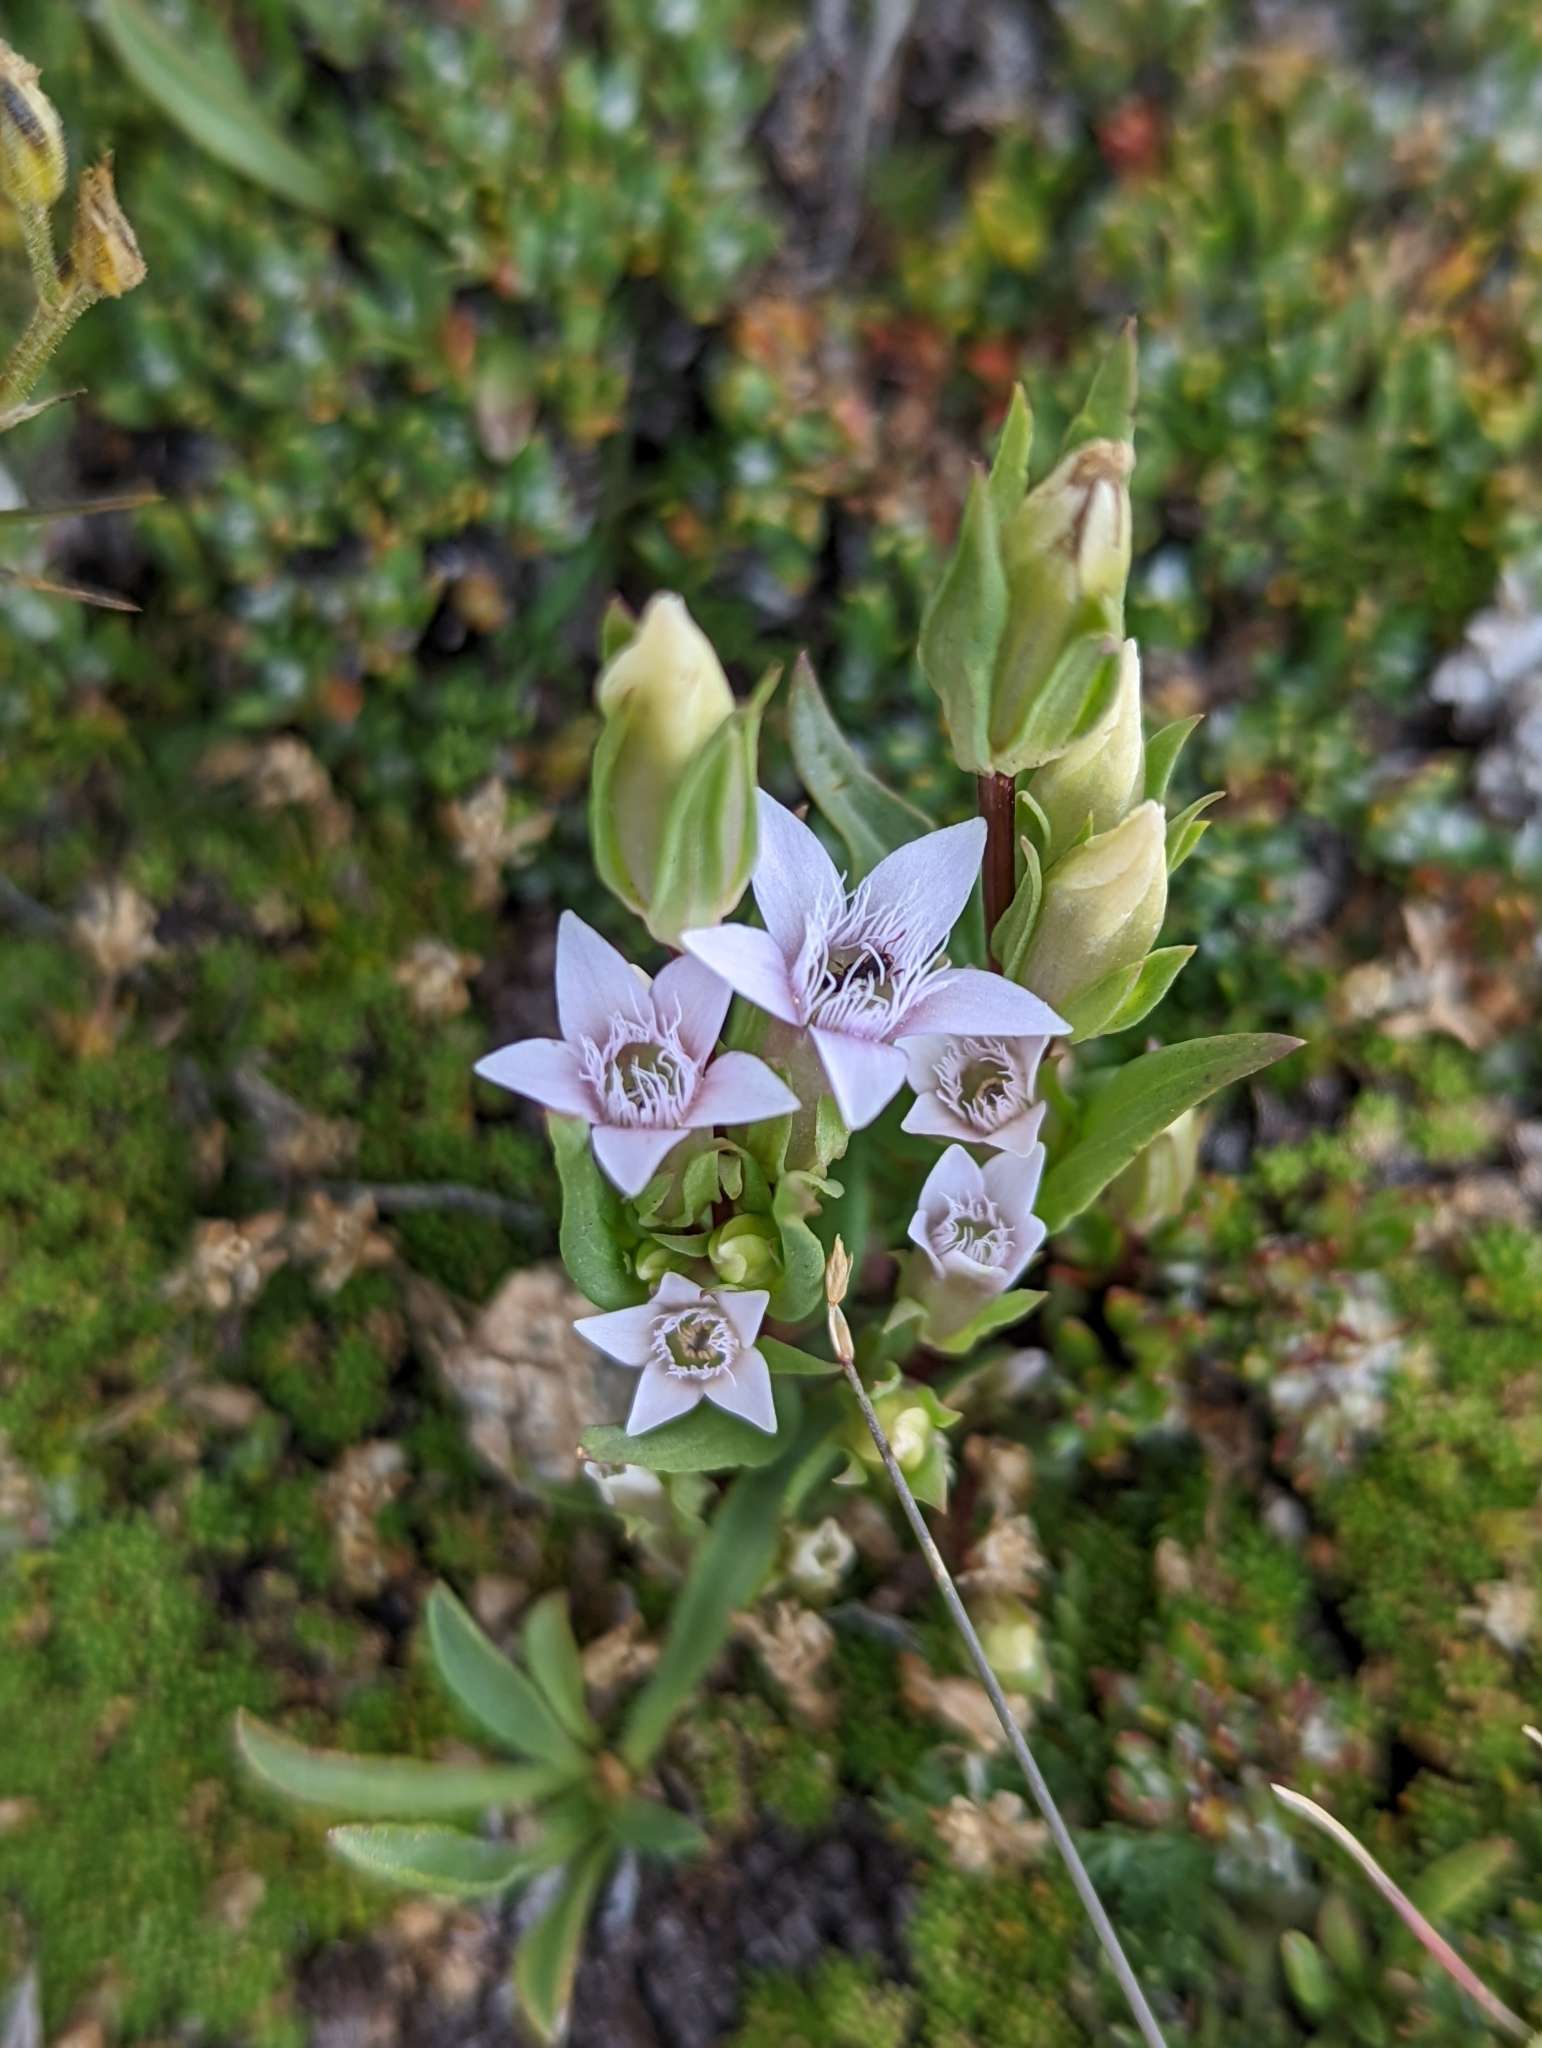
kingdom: Plantae
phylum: Tracheophyta
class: Magnoliopsida
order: Gentianales
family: Gentianaceae
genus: Gentianella
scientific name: Gentianella amarella
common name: Autumn gentian
